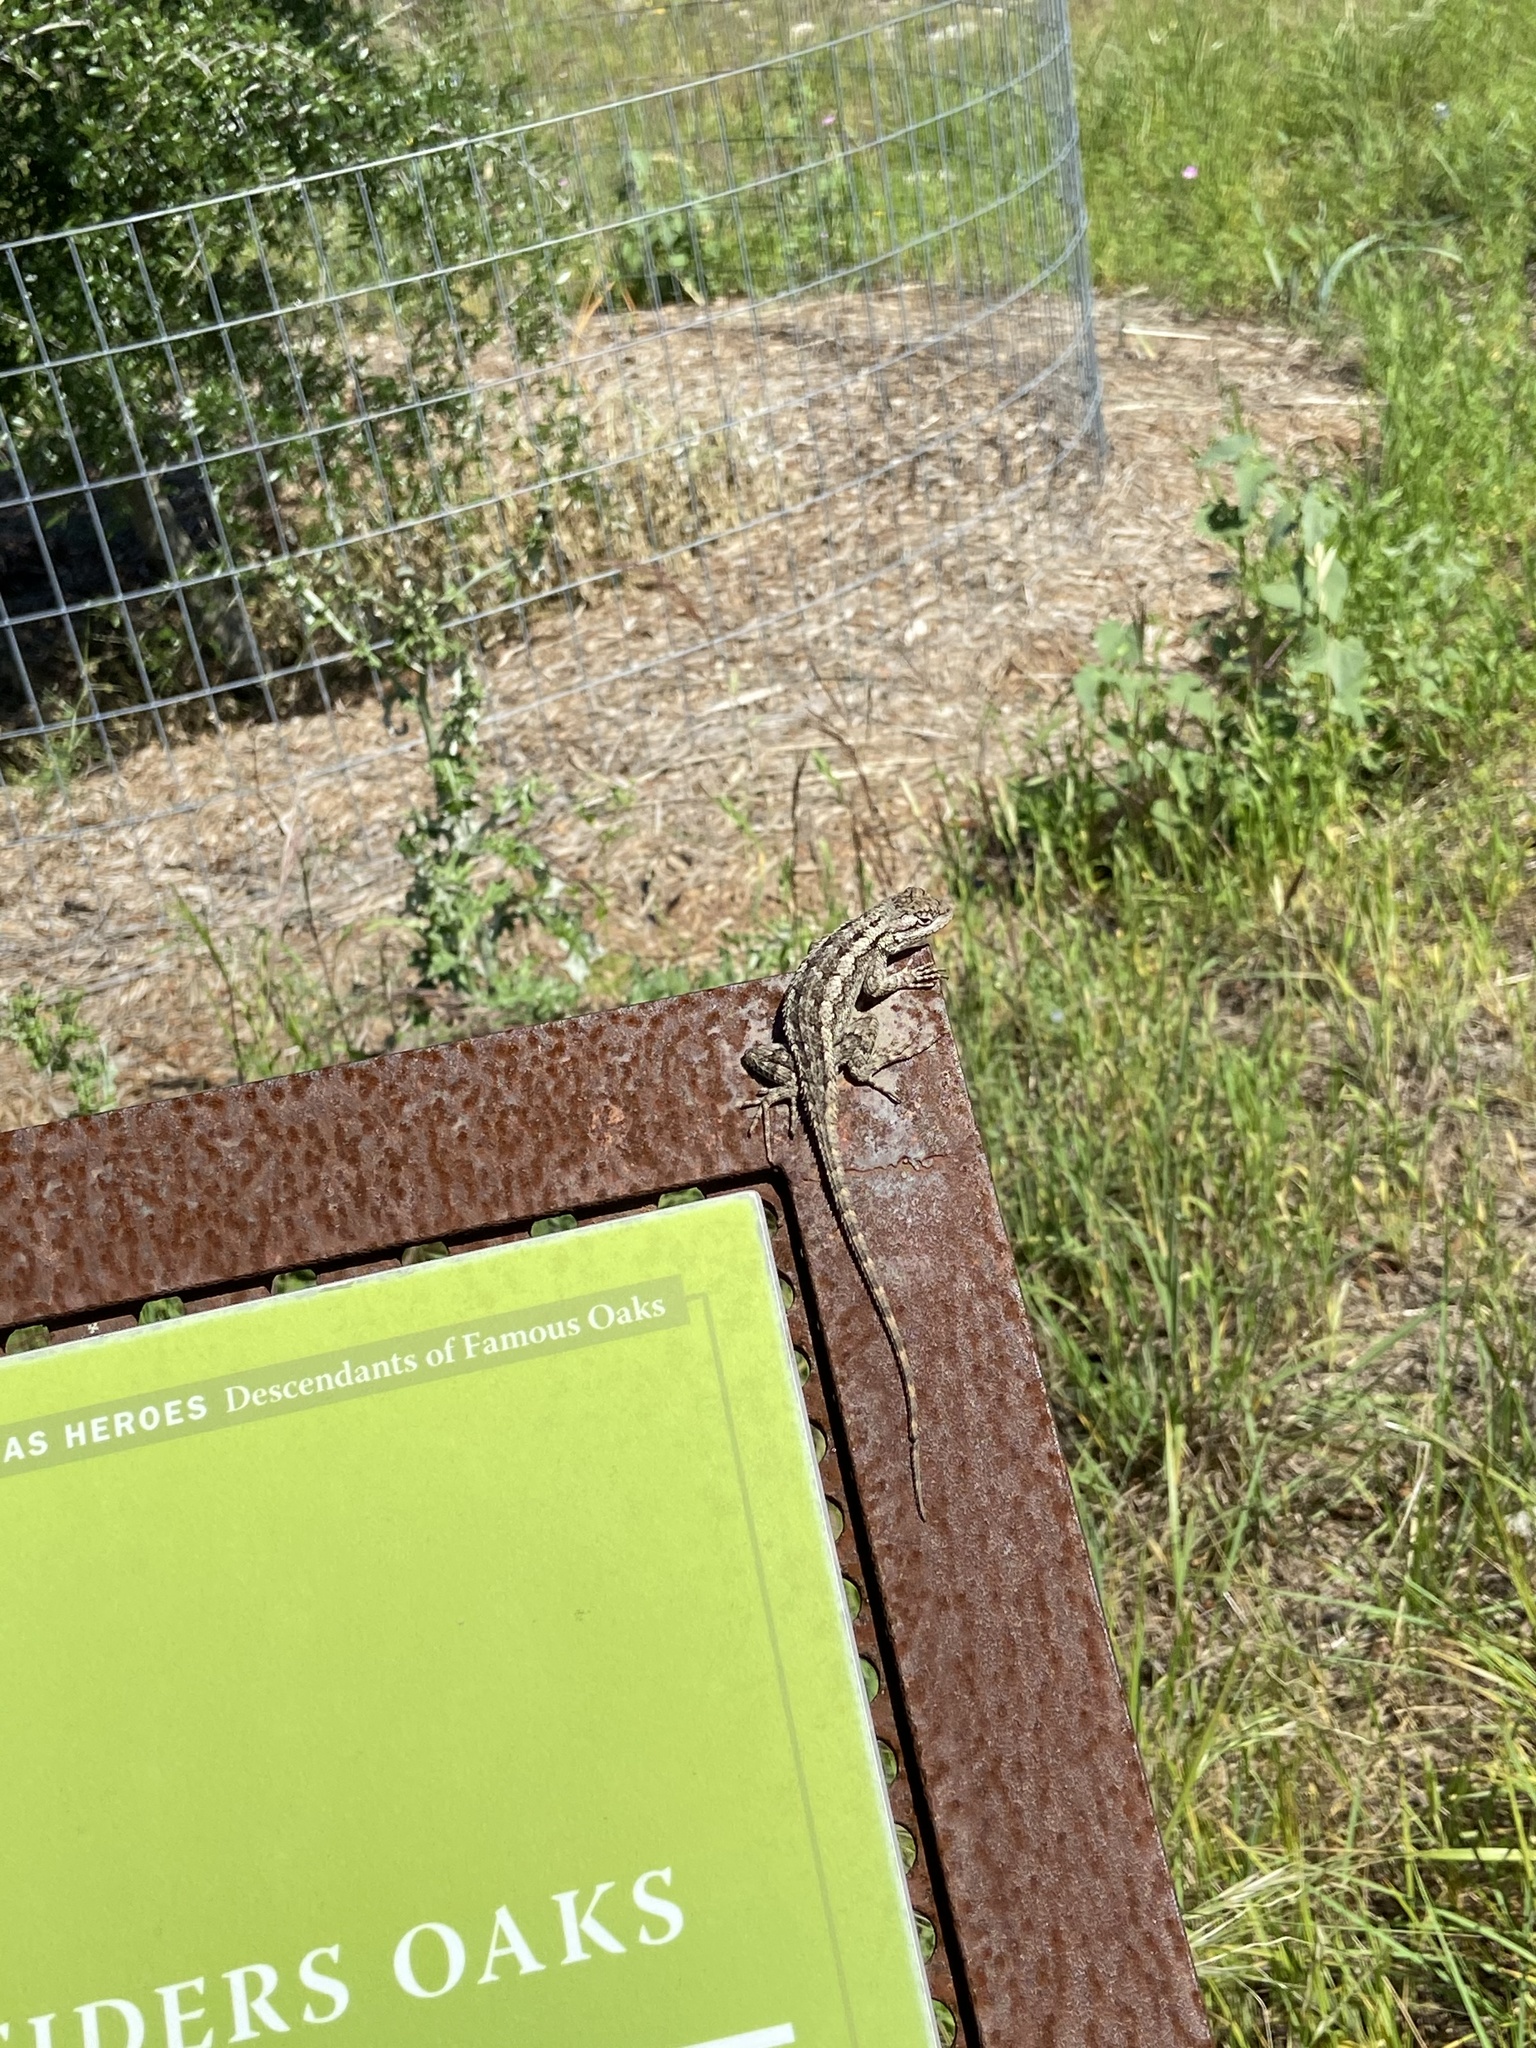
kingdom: Animalia
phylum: Chordata
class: Squamata
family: Phrynosomatidae
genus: Sceloporus
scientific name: Sceloporus olivaceus
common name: Texas spiny lizard
